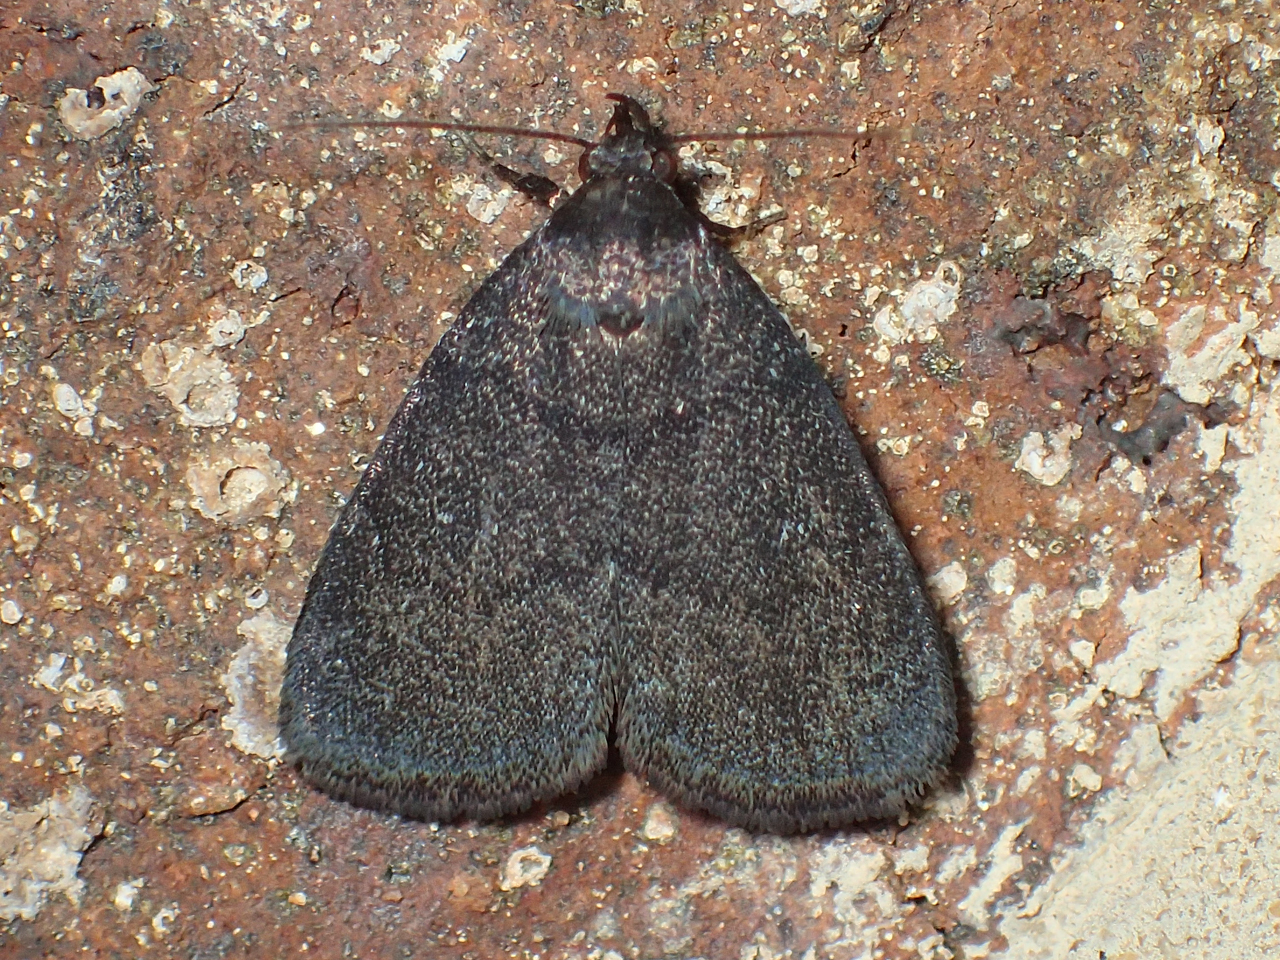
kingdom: Animalia
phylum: Arthropoda
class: Insecta
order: Lepidoptera
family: Erebidae
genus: Idia
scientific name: Idia rotundalis
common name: Rotund idia moth
